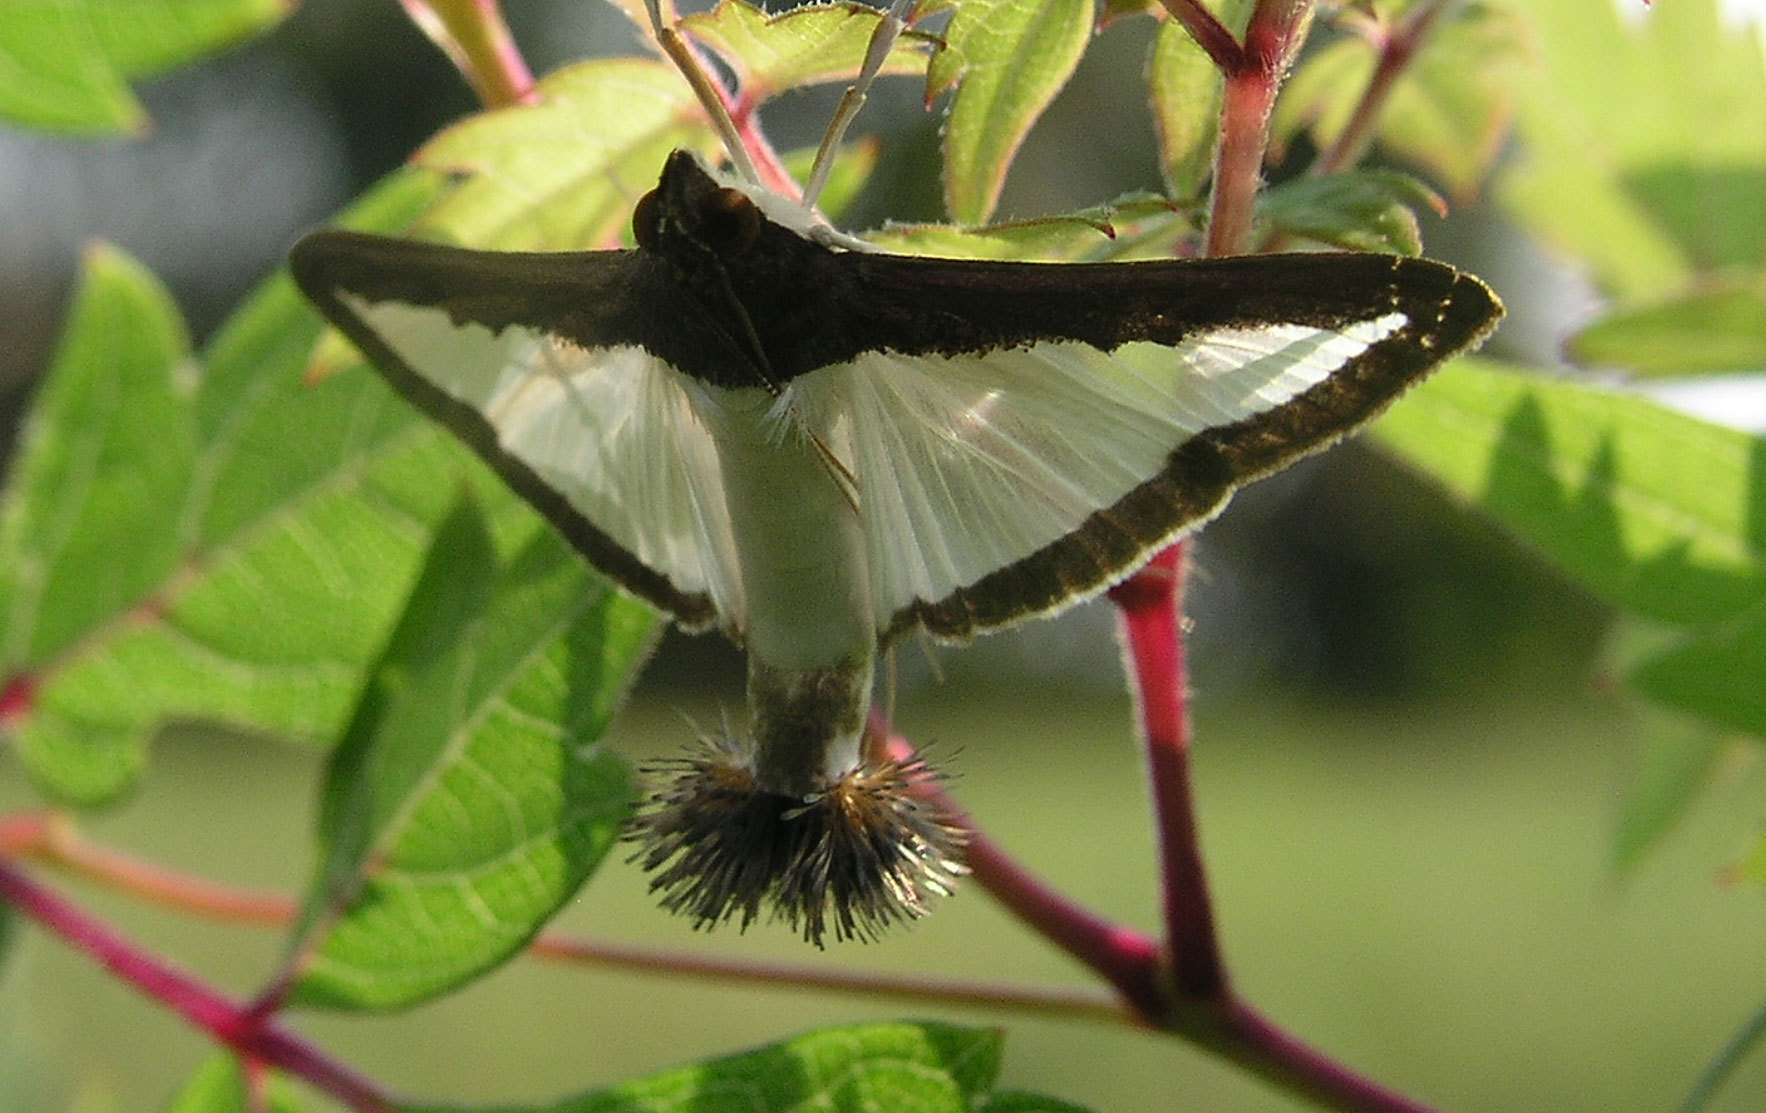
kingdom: Animalia
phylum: Arthropoda
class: Insecta
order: Lepidoptera
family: Crambidae
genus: Diaphania
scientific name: Diaphania hyalinata
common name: Melonworm
